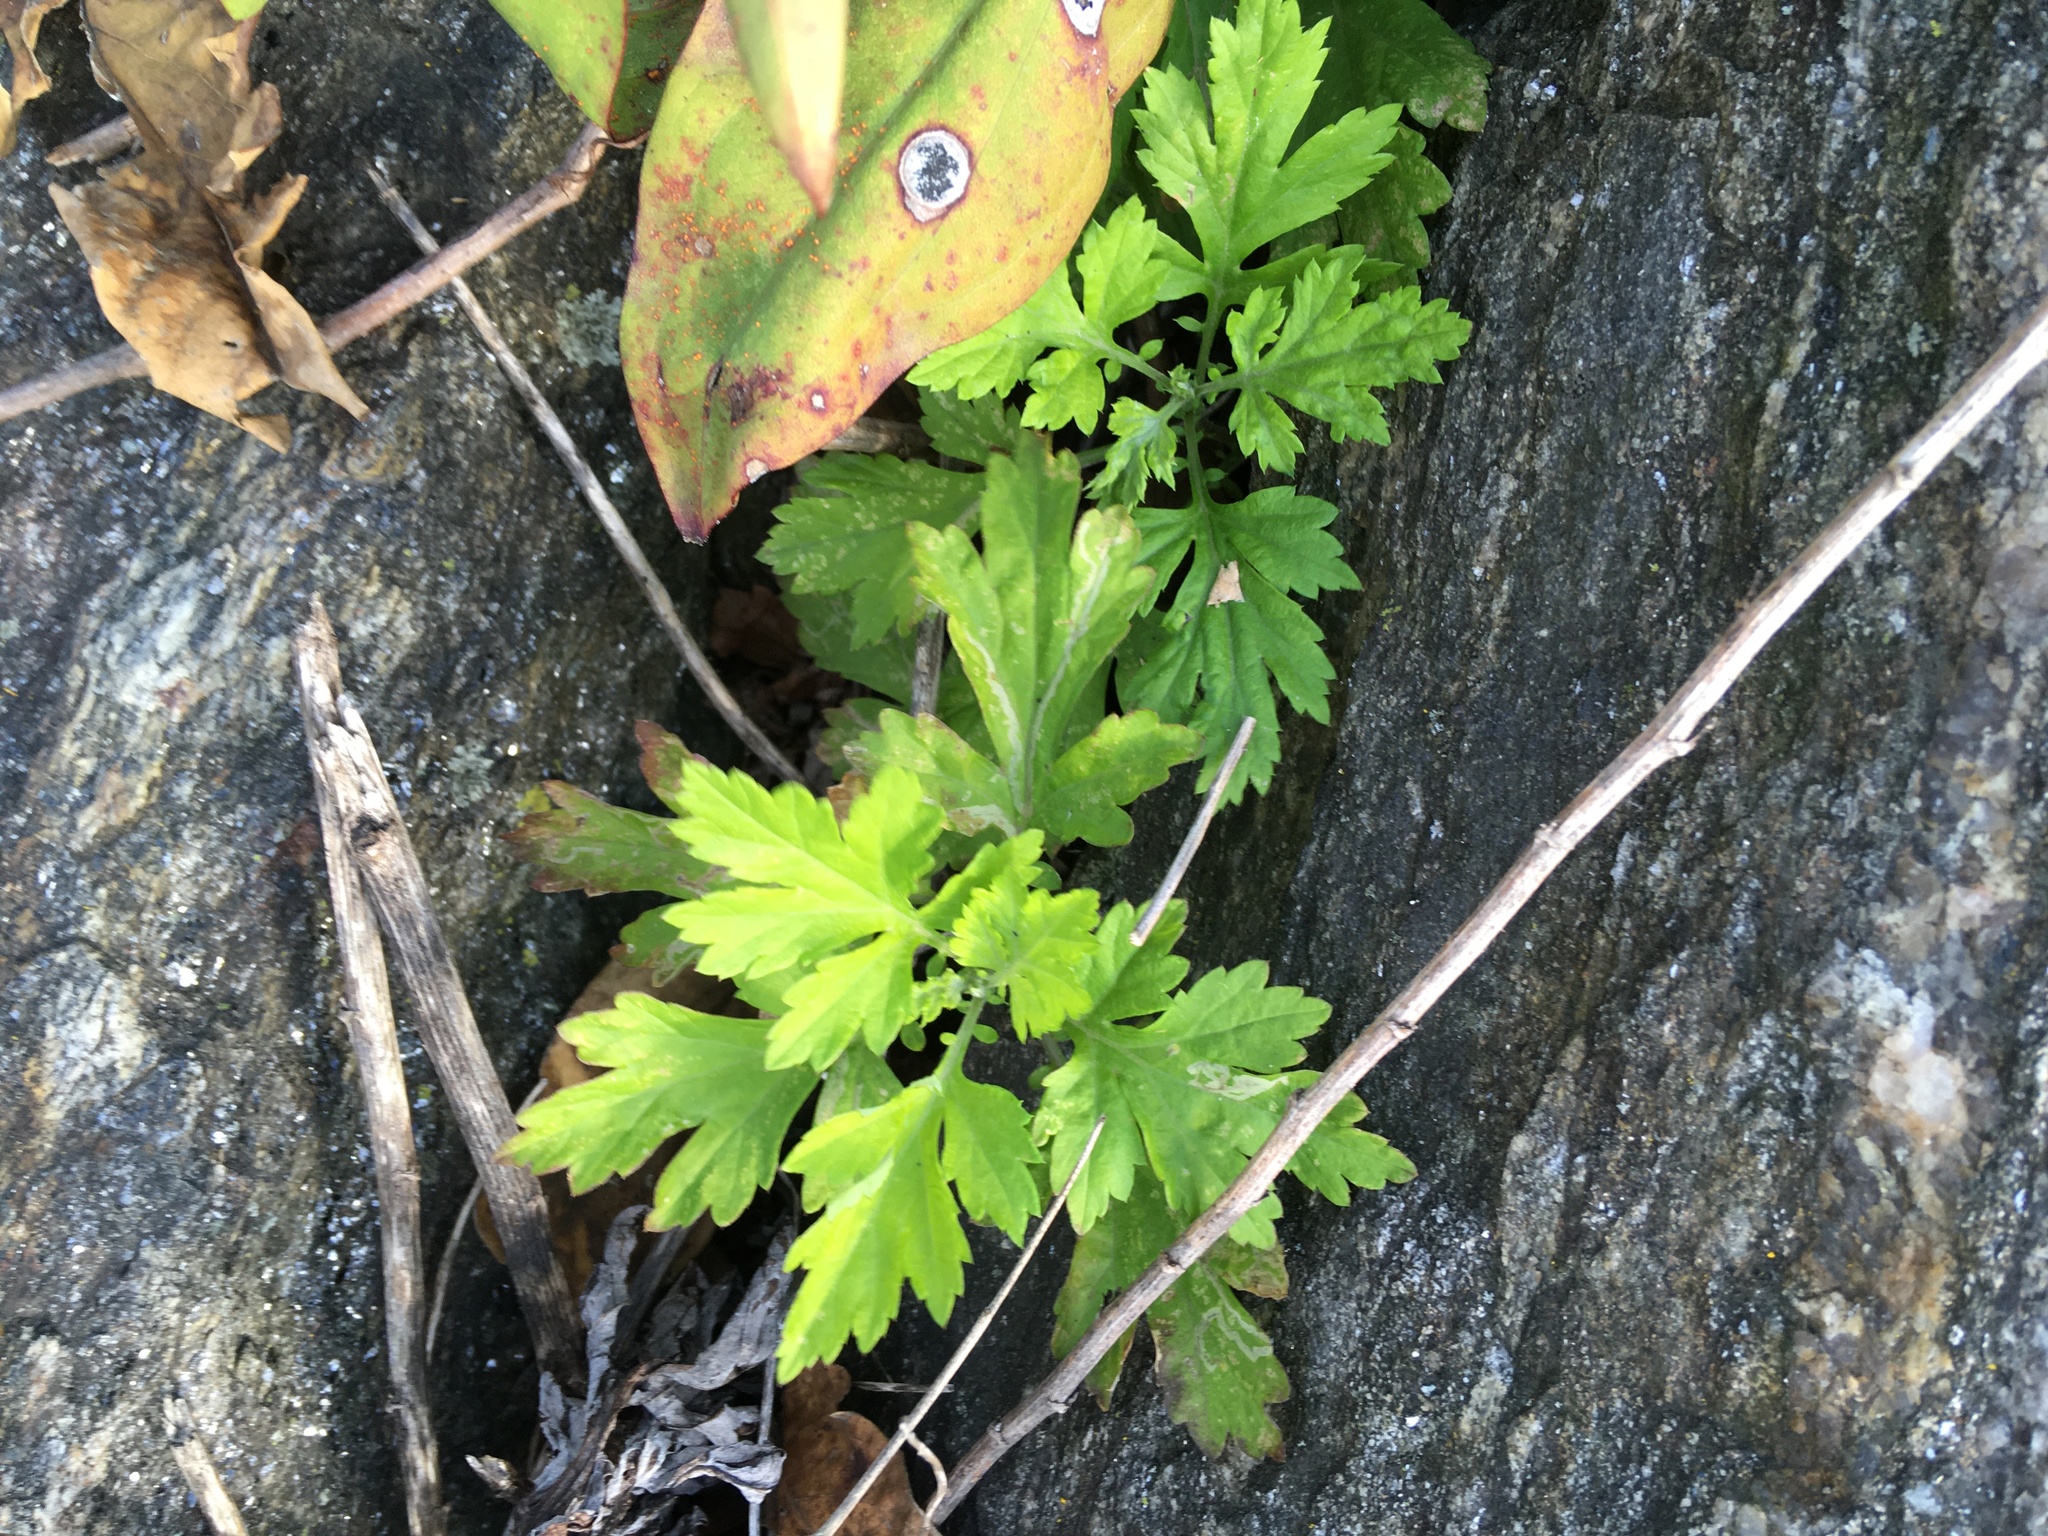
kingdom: Plantae
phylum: Tracheophyta
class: Magnoliopsida
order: Asterales
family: Asteraceae
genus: Artemisia
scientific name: Artemisia vulgaris
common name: Mugwort
